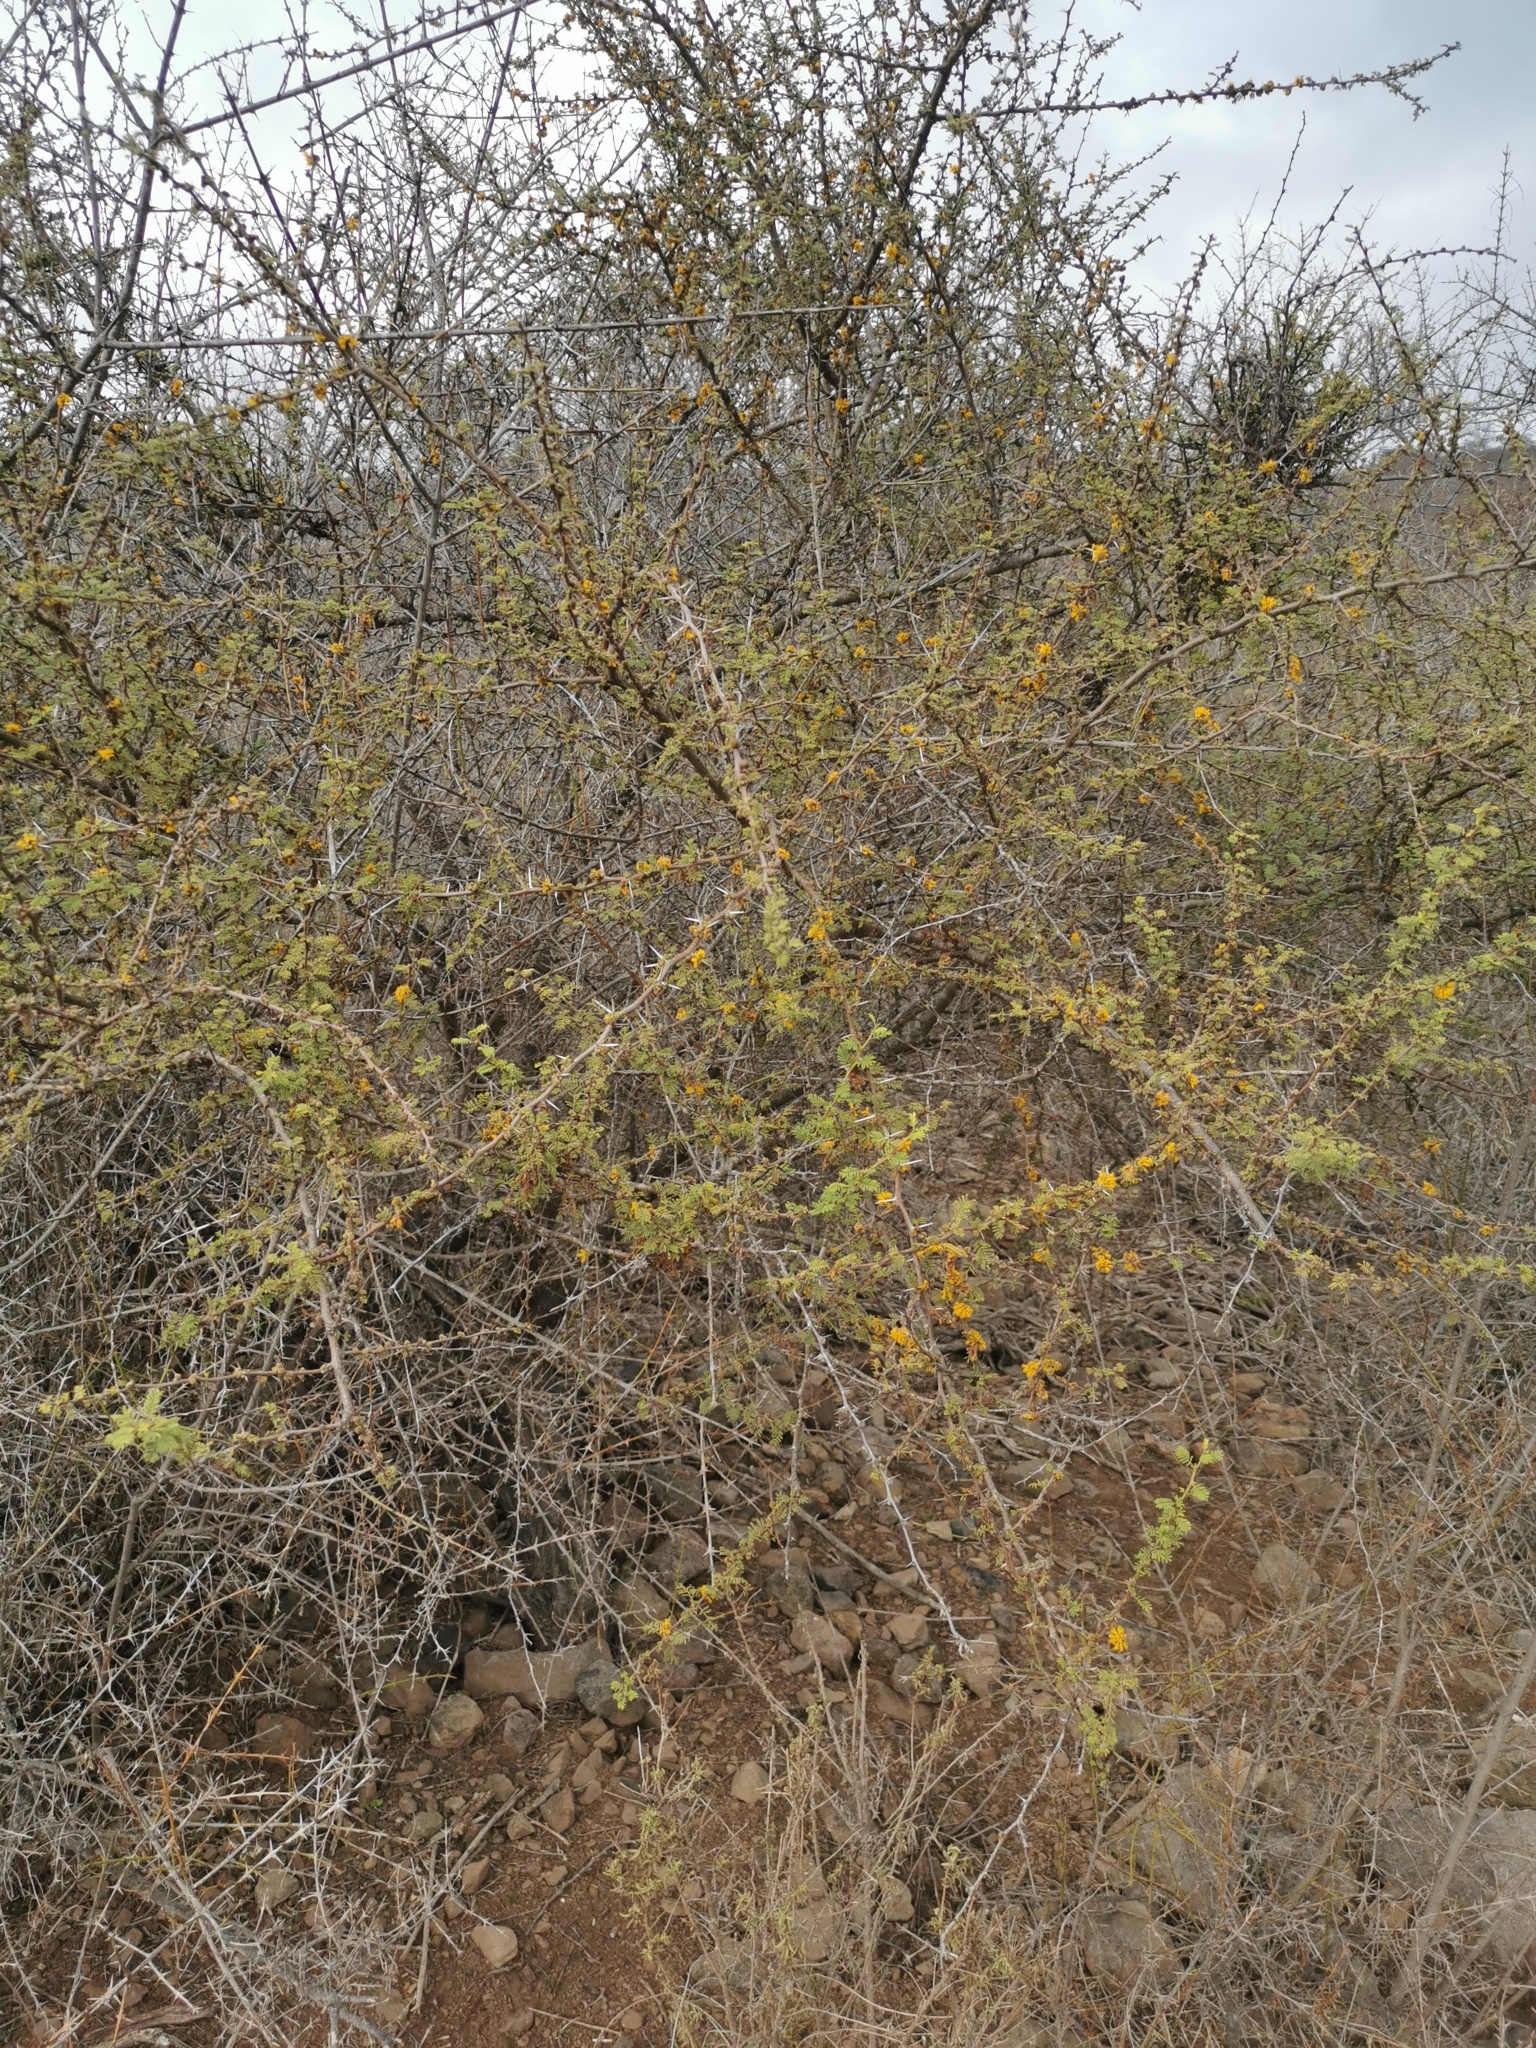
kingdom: Plantae
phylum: Tracheophyta
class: Magnoliopsida
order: Fabales
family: Fabaceae
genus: Vachellia
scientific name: Vachellia caven
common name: Roman cassie
